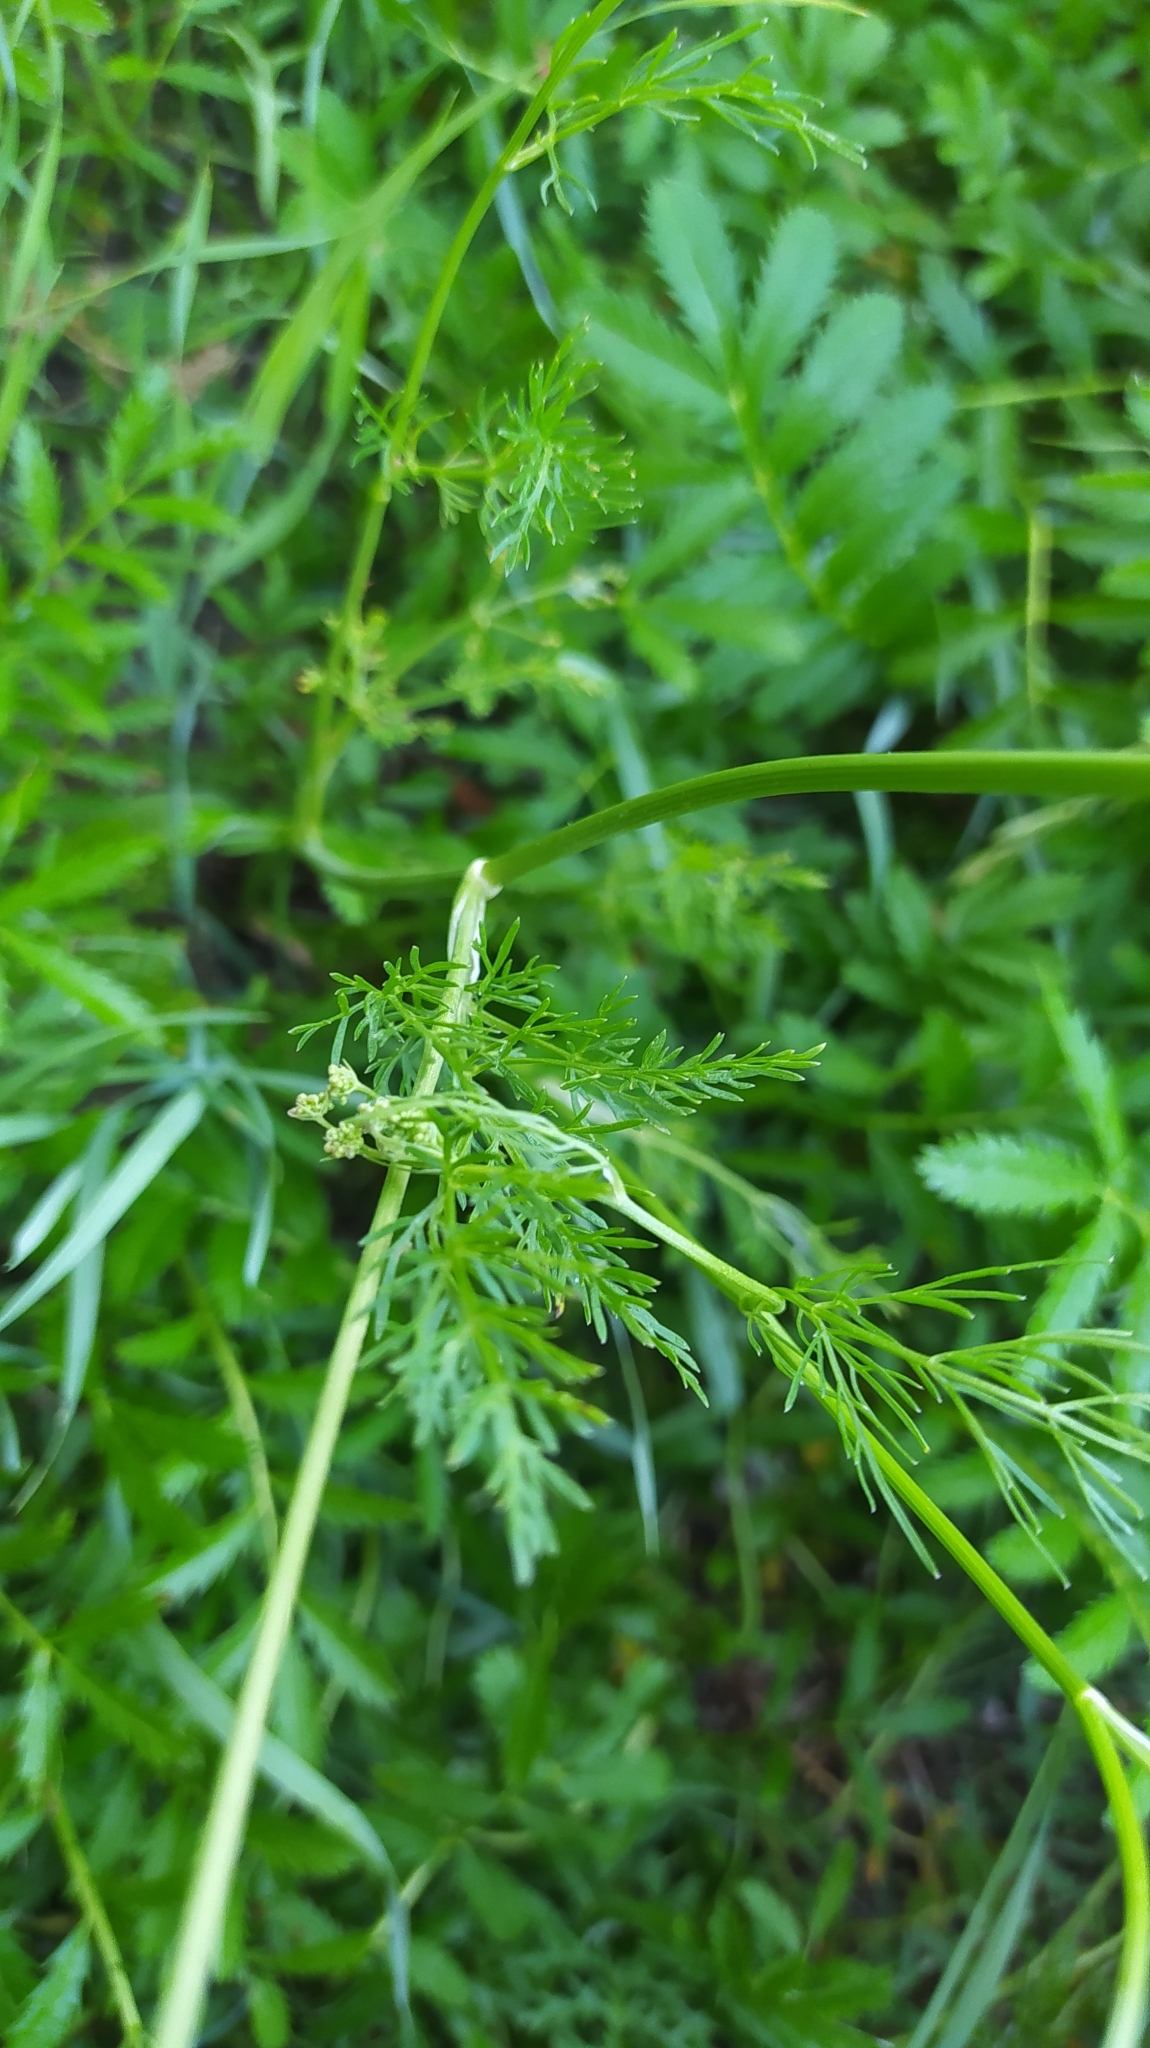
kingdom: Plantae
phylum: Tracheophyta
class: Magnoliopsida
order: Apiales
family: Apiaceae
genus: Carum
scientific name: Carum carvi
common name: Caraway
